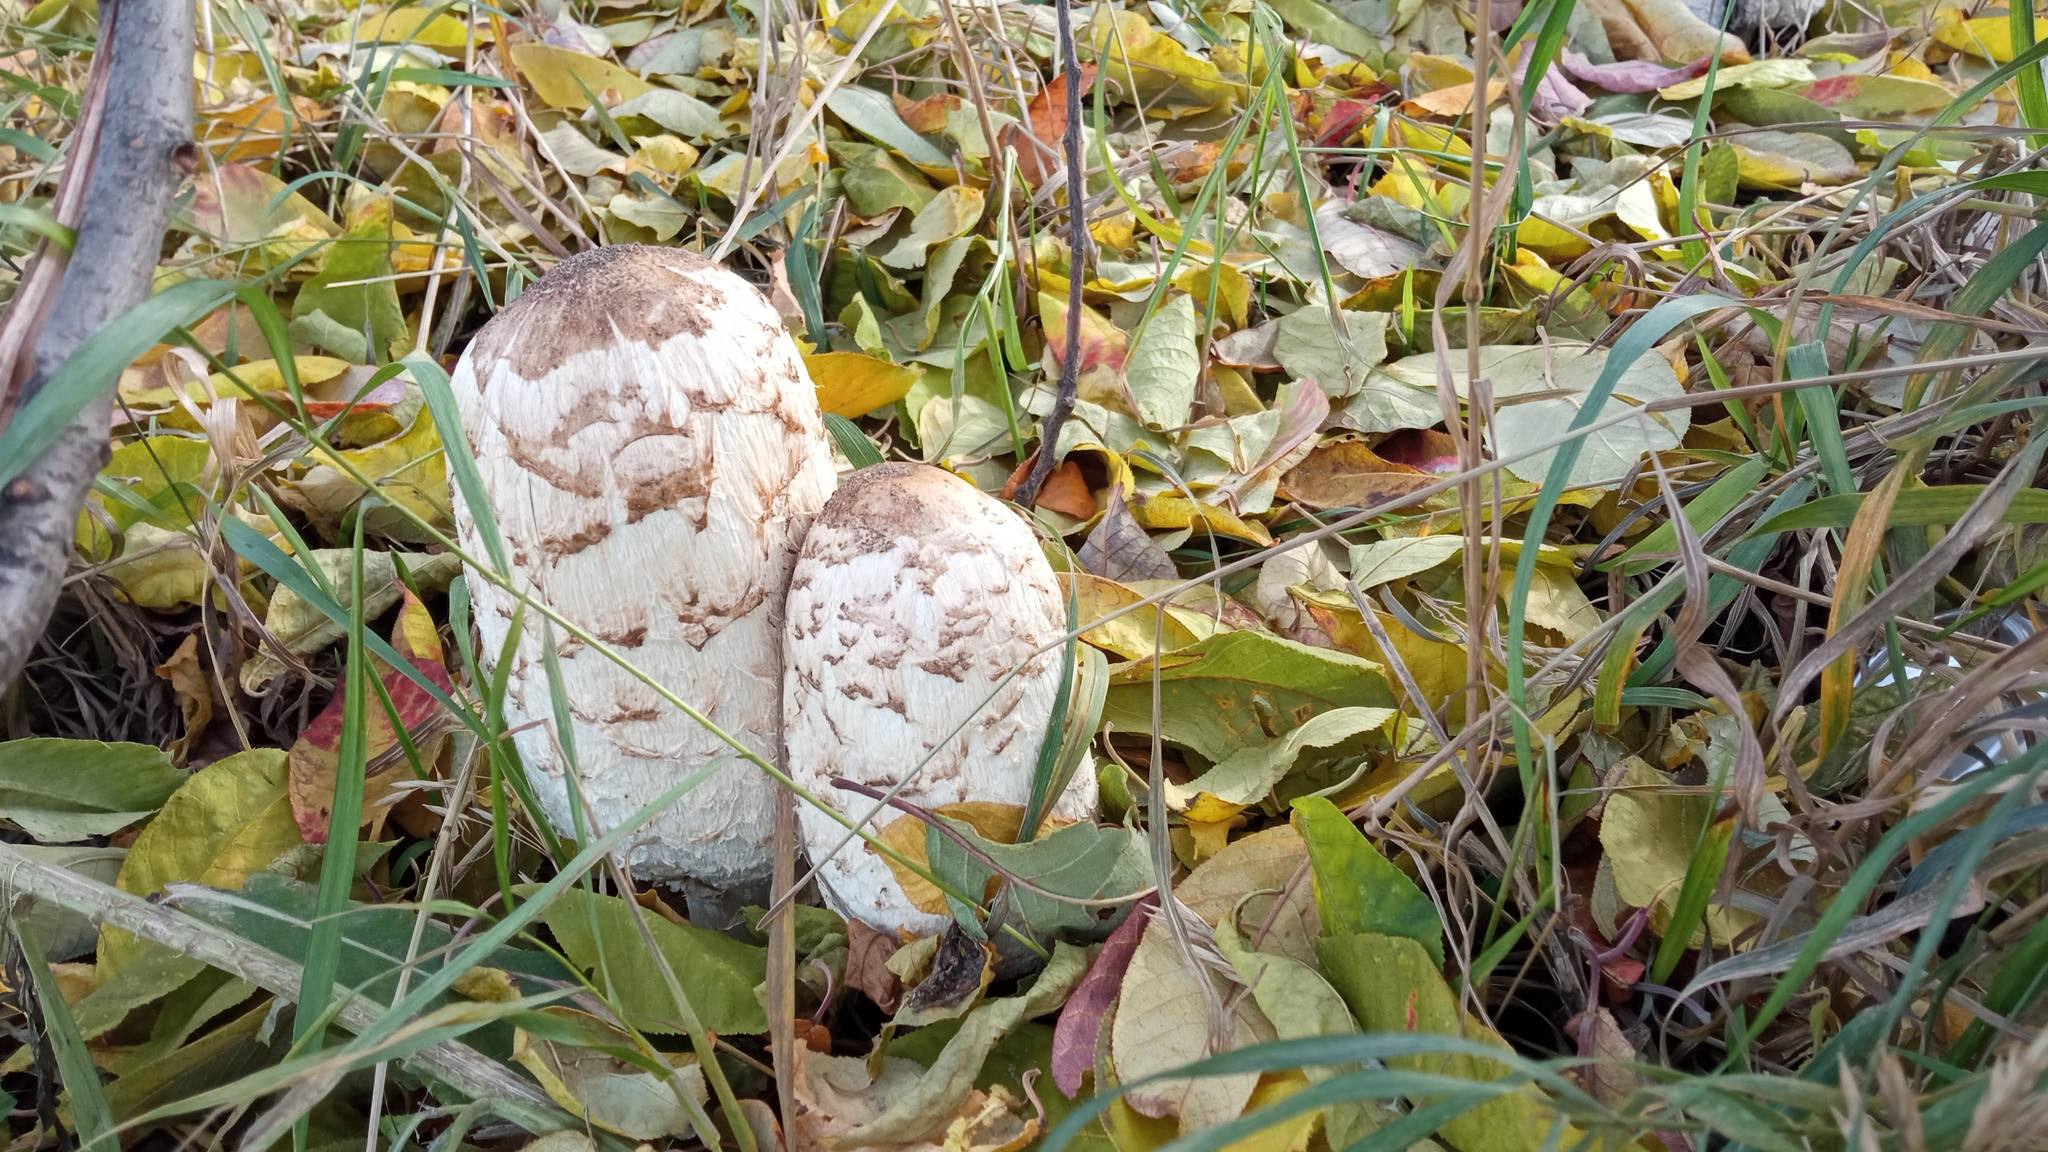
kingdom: Fungi
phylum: Basidiomycota
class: Agaricomycetes
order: Agaricales
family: Agaricaceae
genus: Coprinus
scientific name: Coprinus comatus
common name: Lawyer's wig
